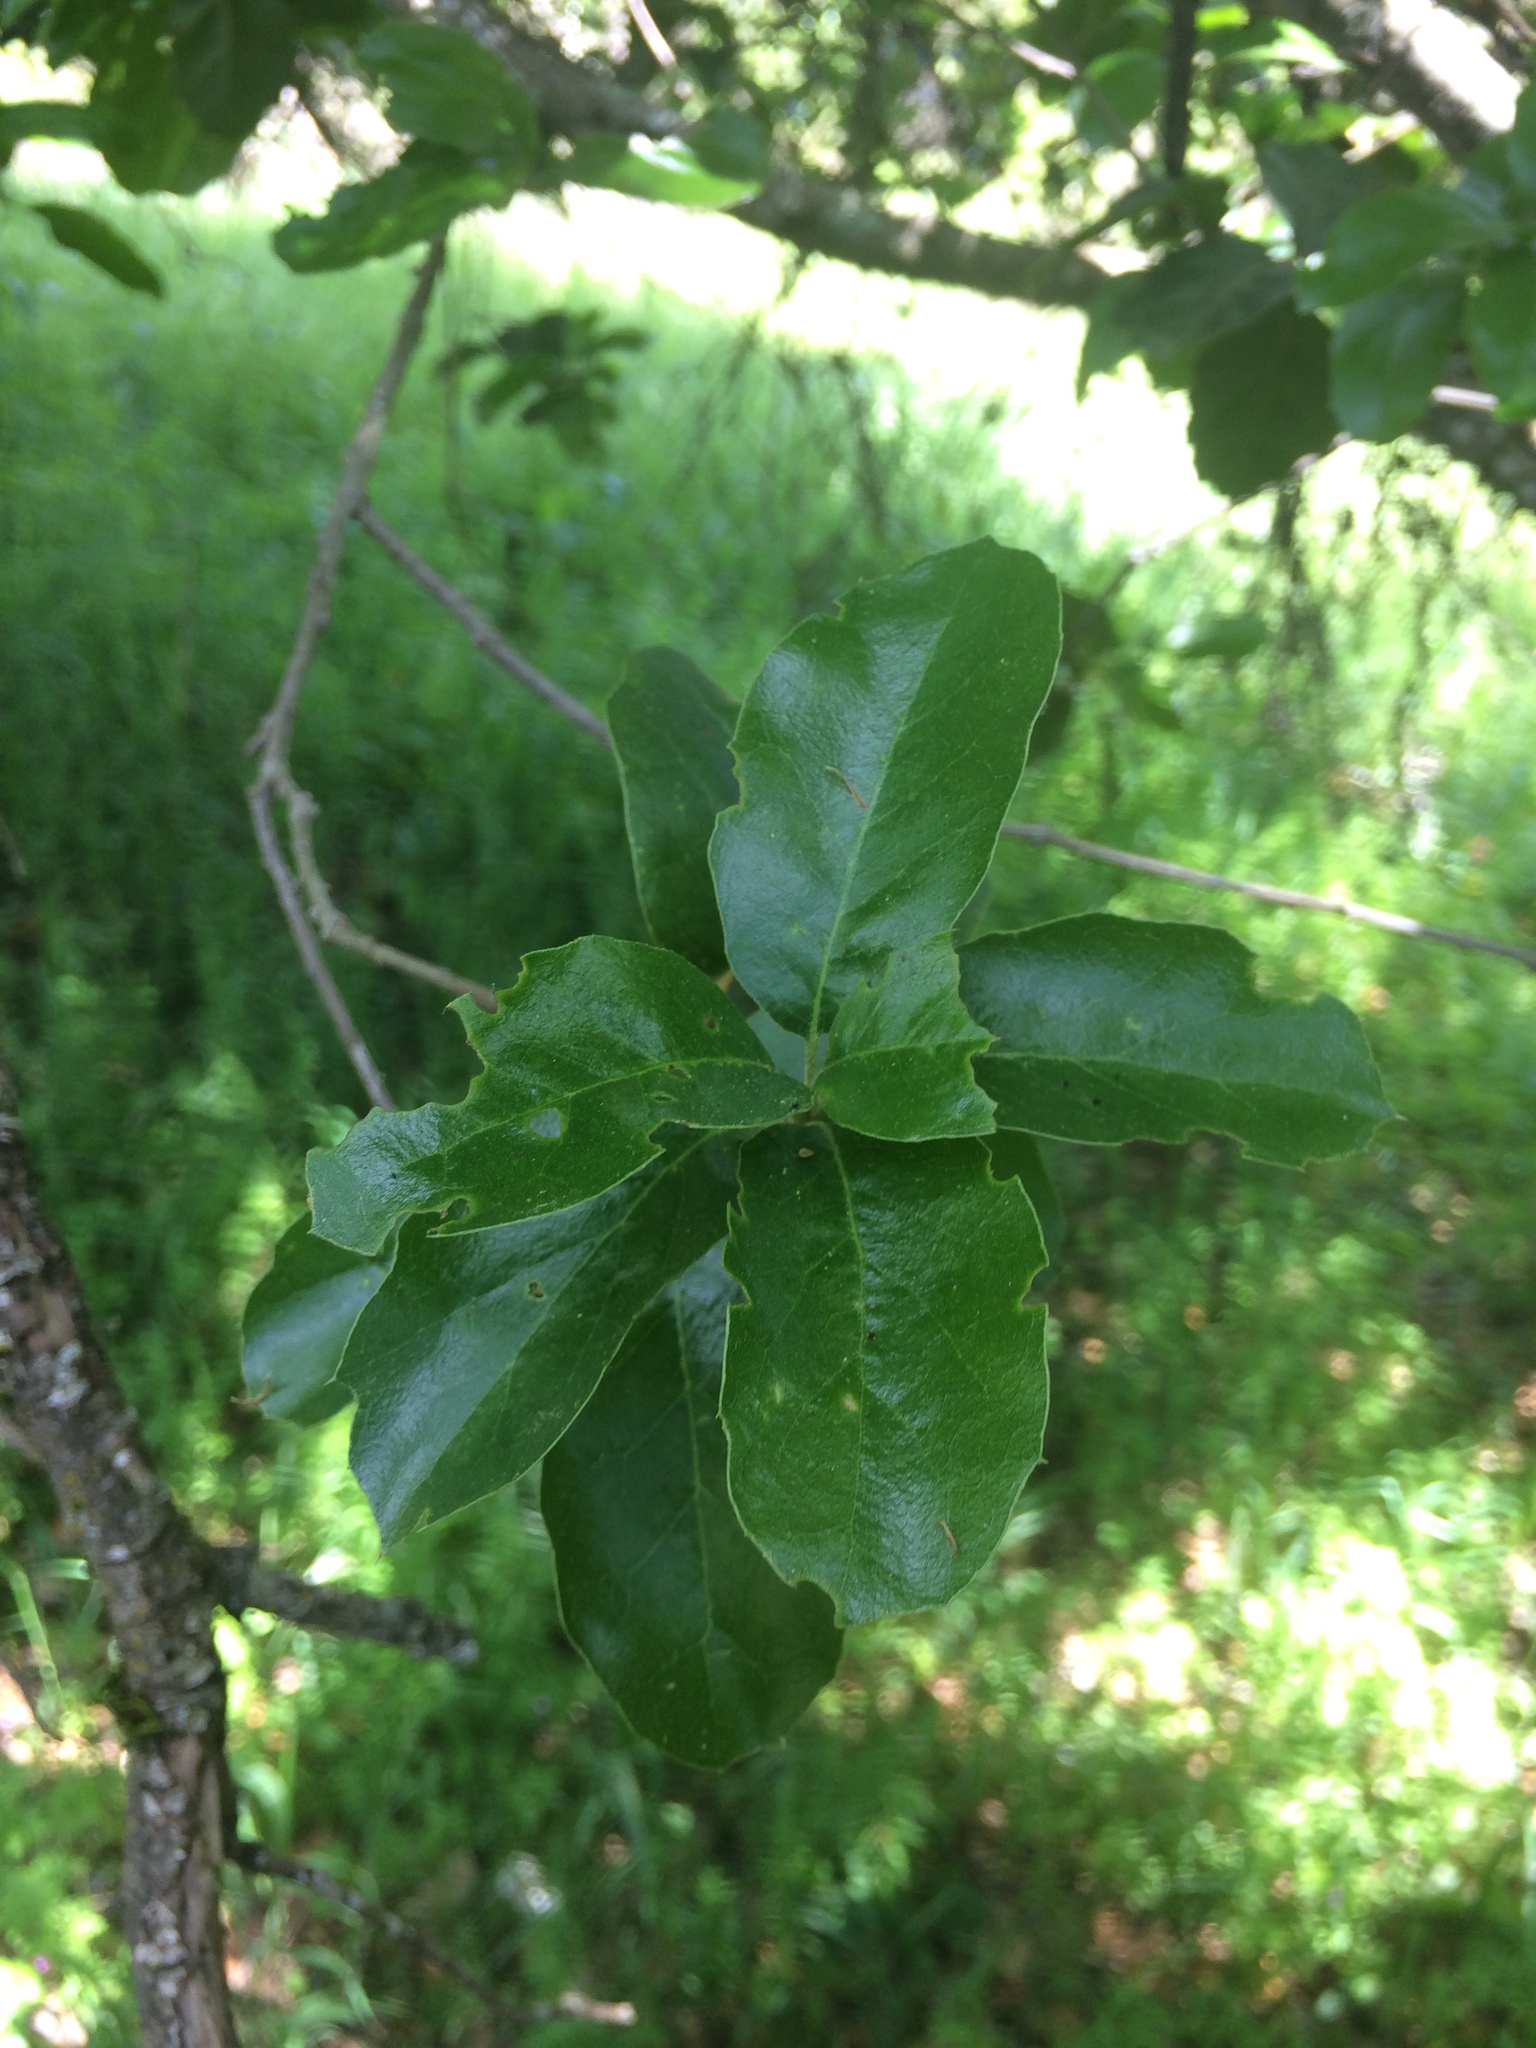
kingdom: Plantae
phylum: Tracheophyta
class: Magnoliopsida
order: Fagales
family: Fagaceae
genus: Quercus
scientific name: Quercus douglasii
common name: Blue oak
